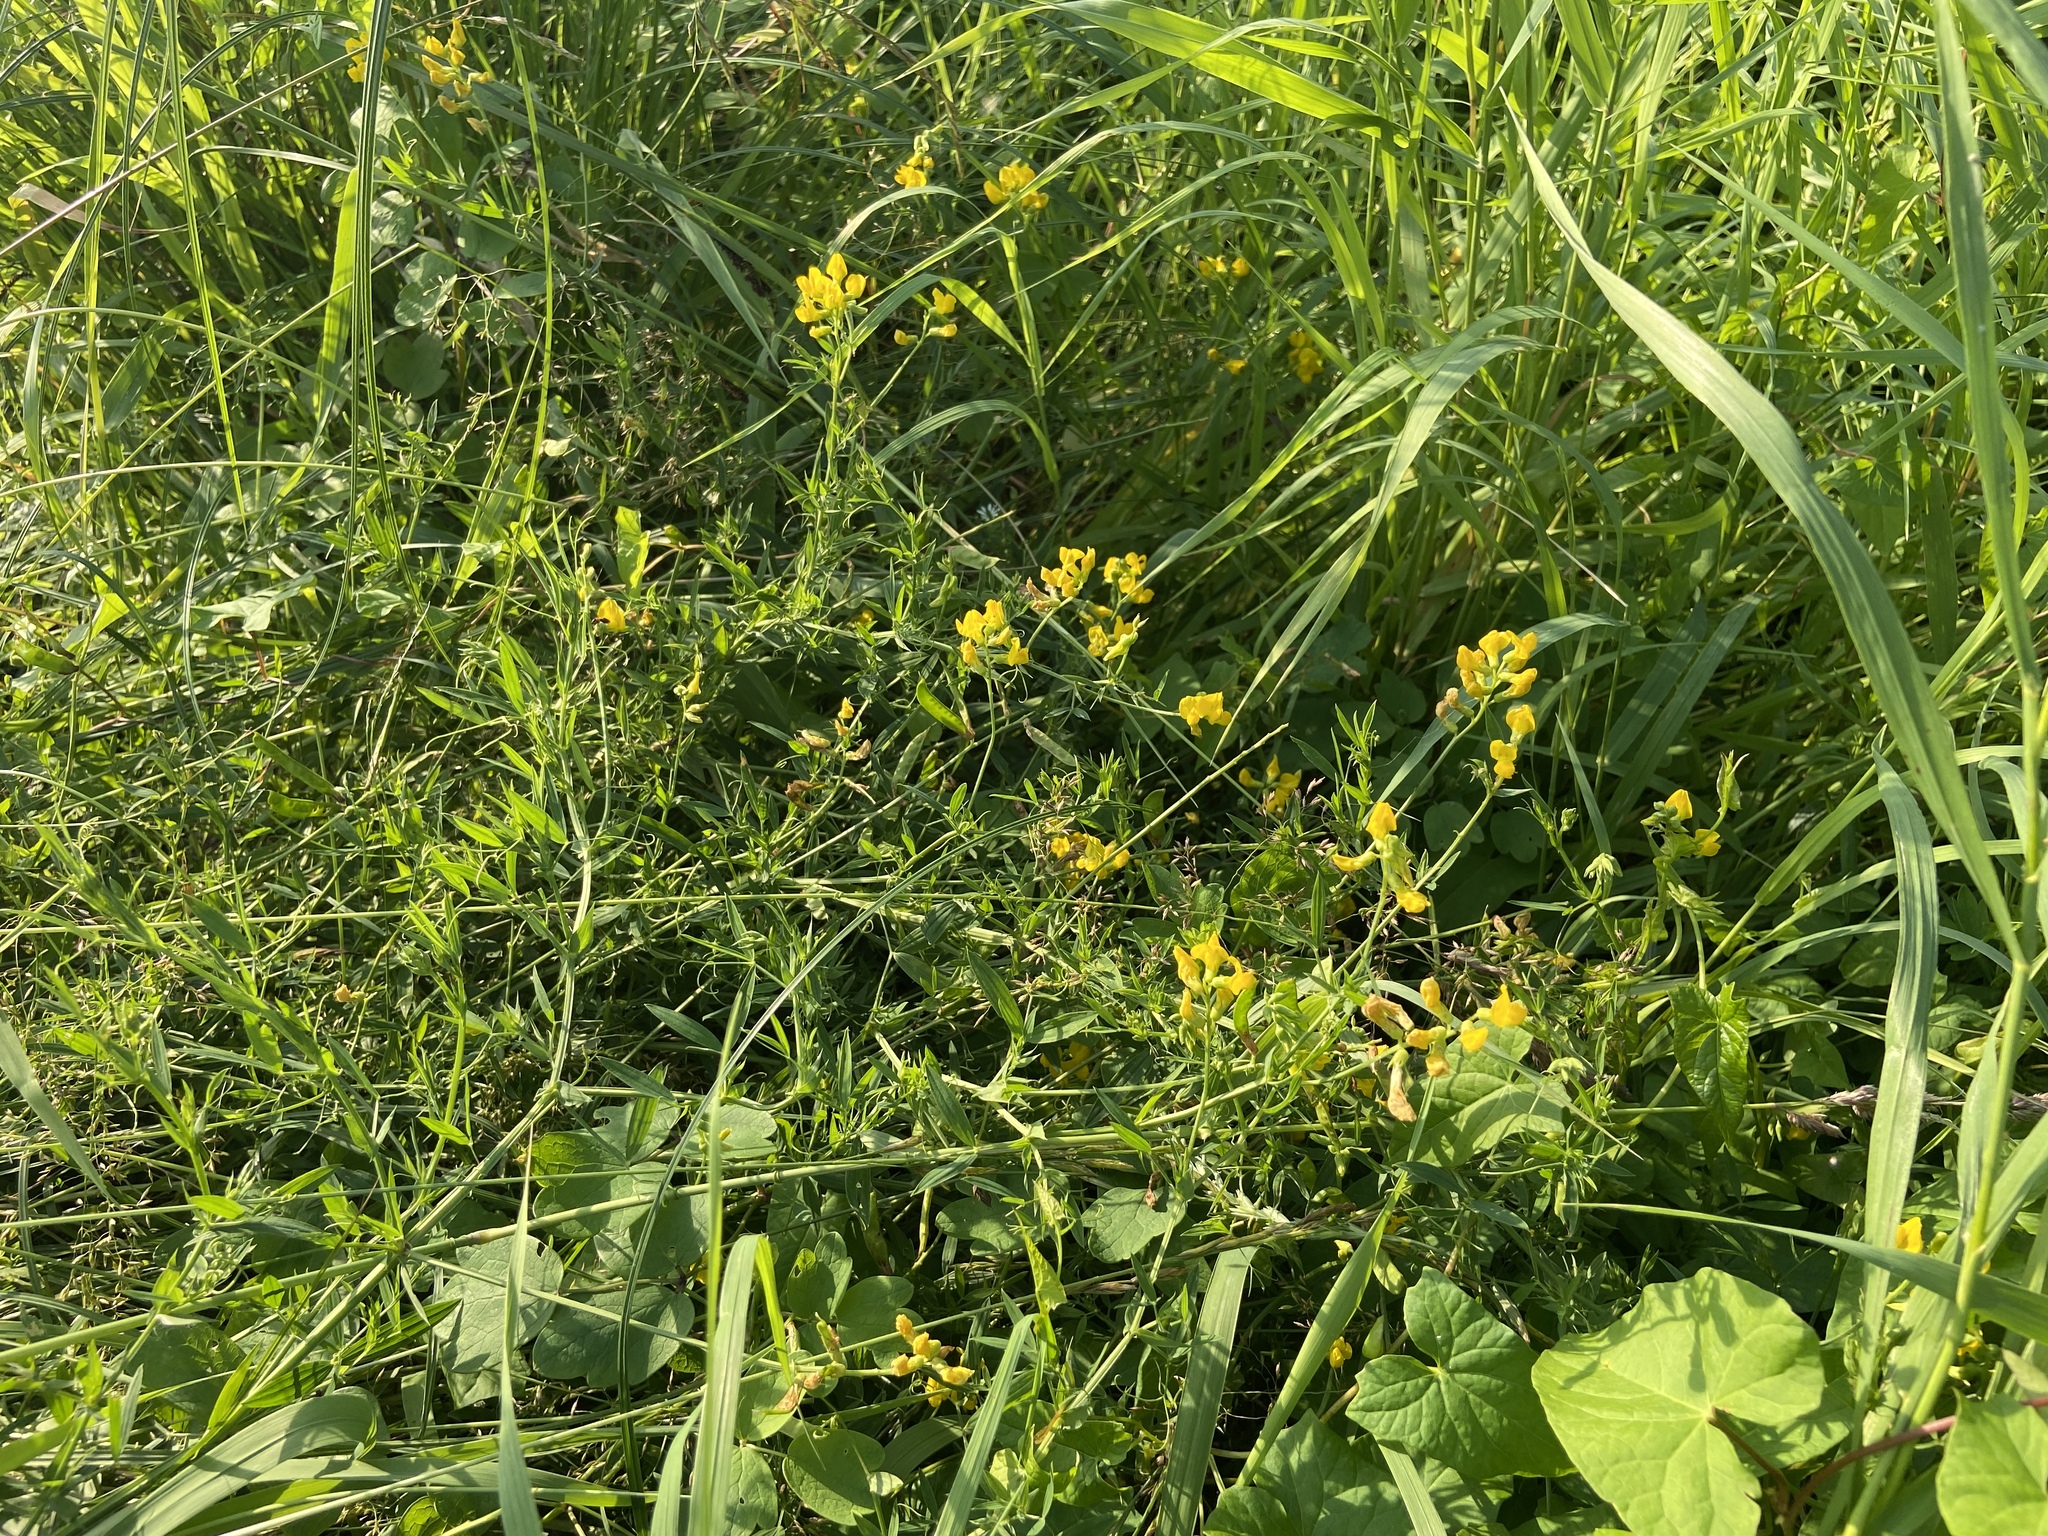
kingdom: Plantae
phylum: Tracheophyta
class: Magnoliopsida
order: Fabales
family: Fabaceae
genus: Lathyrus
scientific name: Lathyrus pratensis
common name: Meadow vetchling
